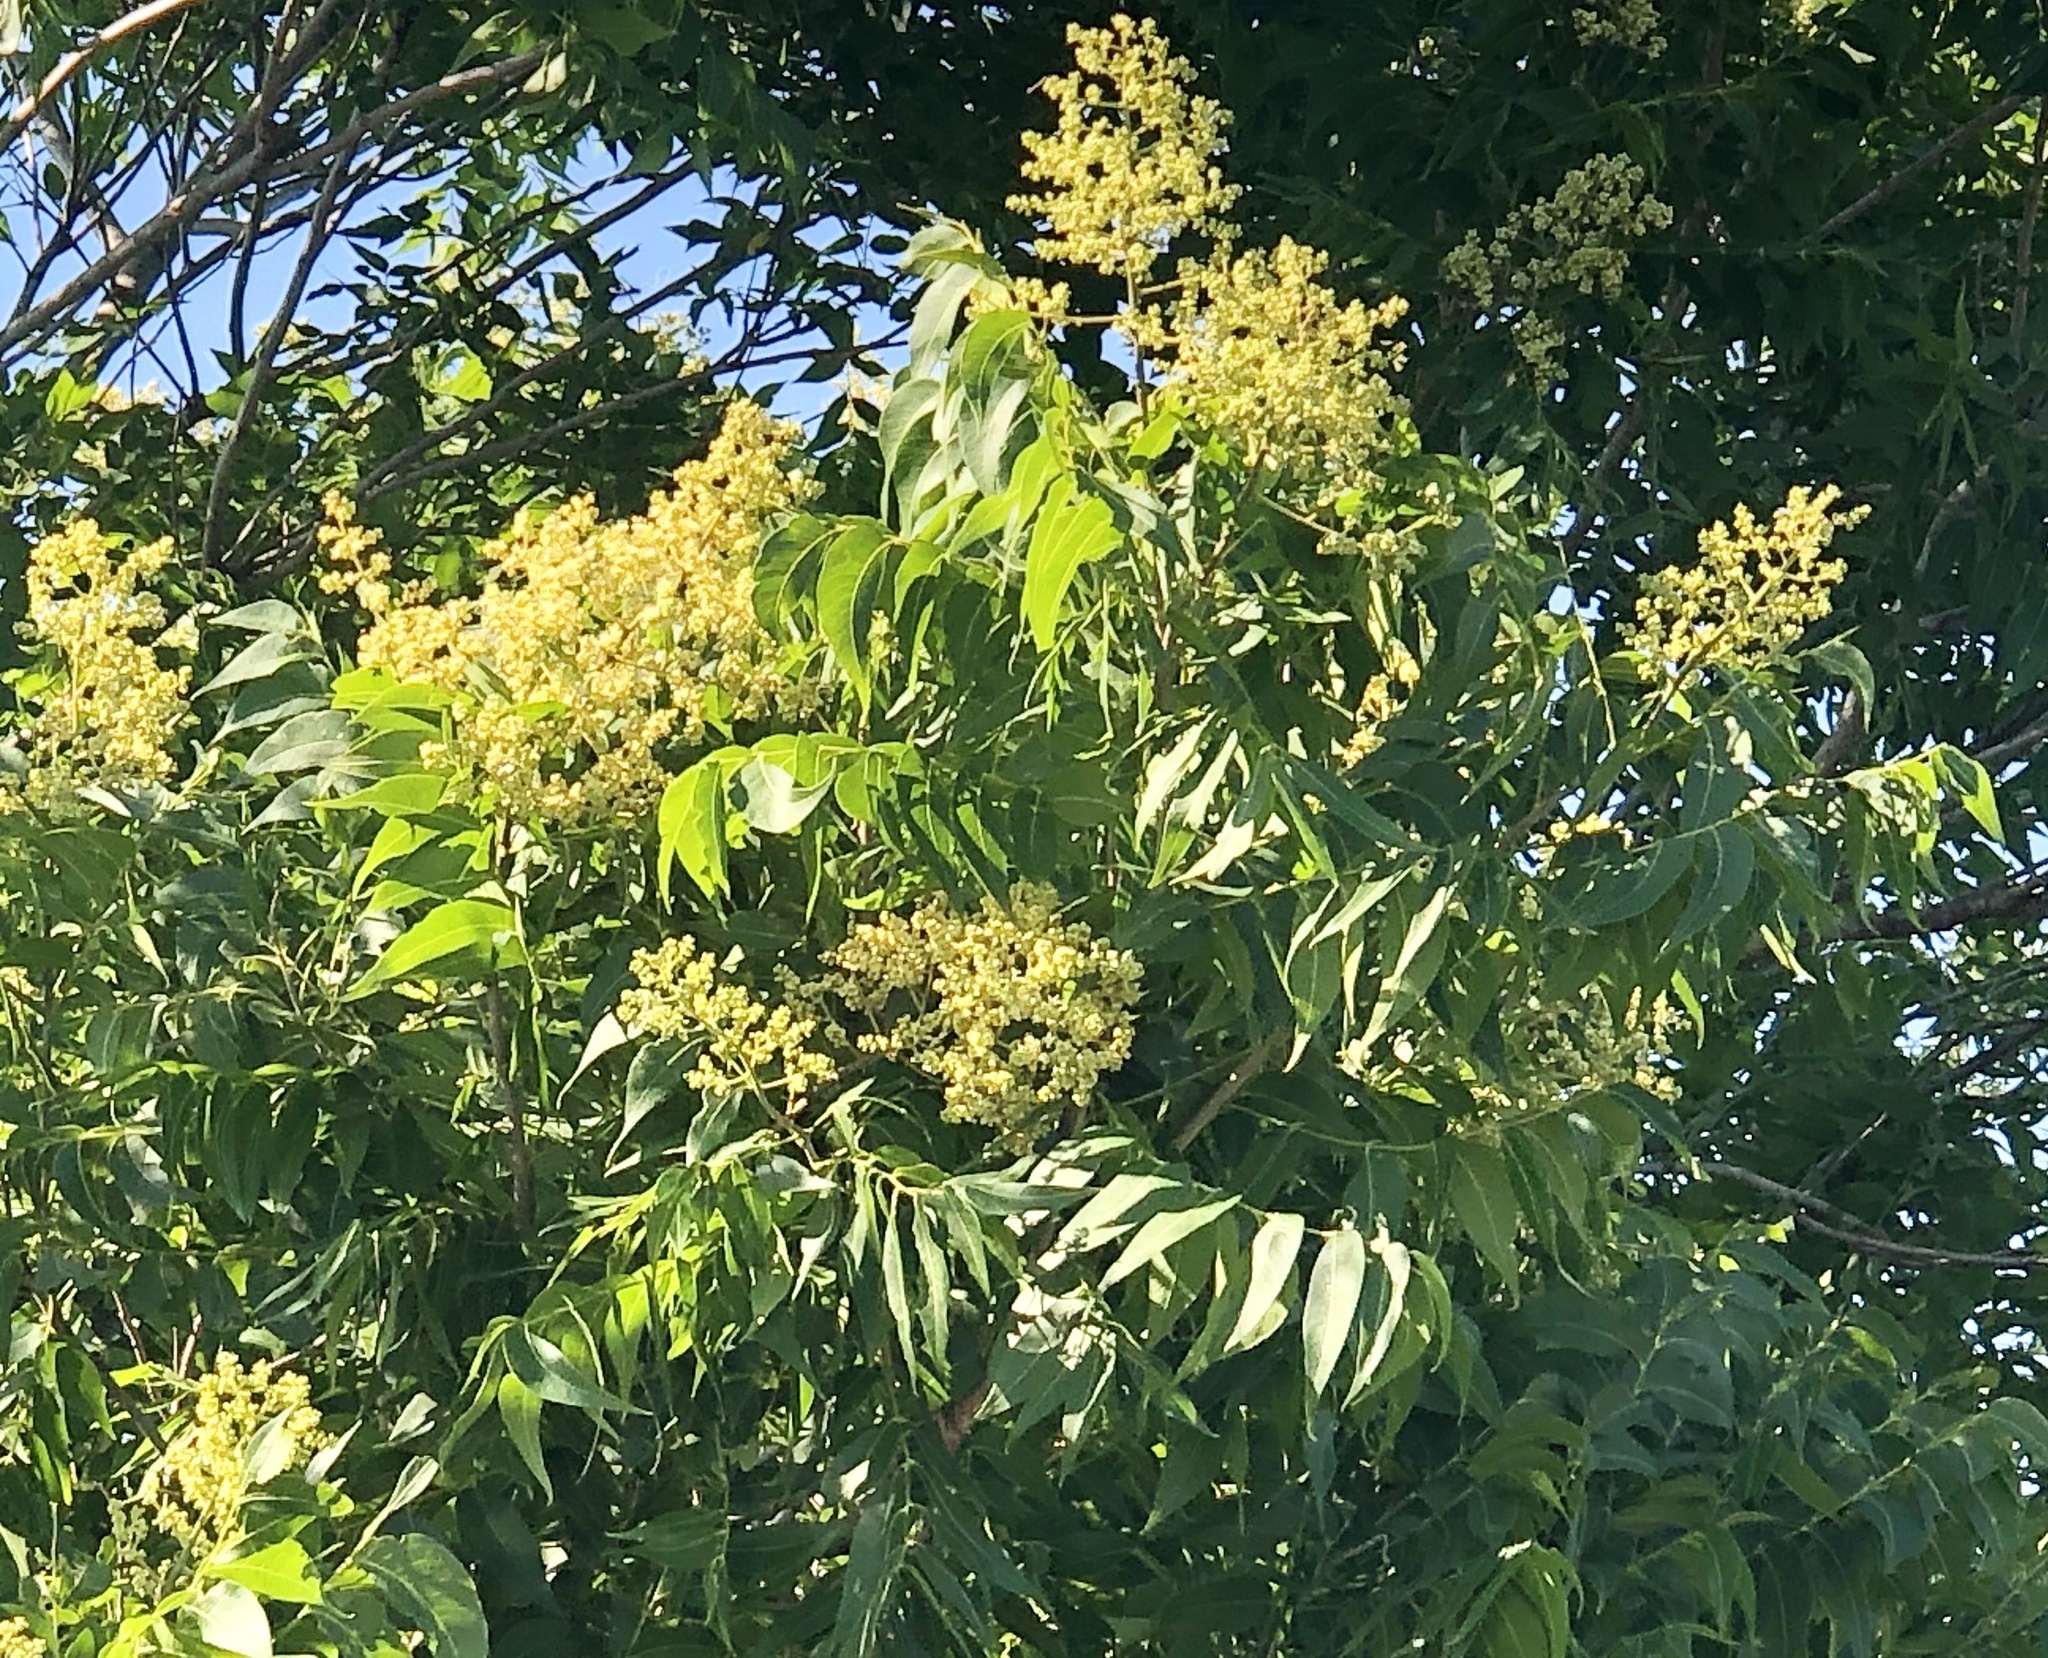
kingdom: Plantae
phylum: Tracheophyta
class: Magnoliopsida
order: Sapindales
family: Sapindaceae
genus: Sapindus
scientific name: Sapindus drummondii
